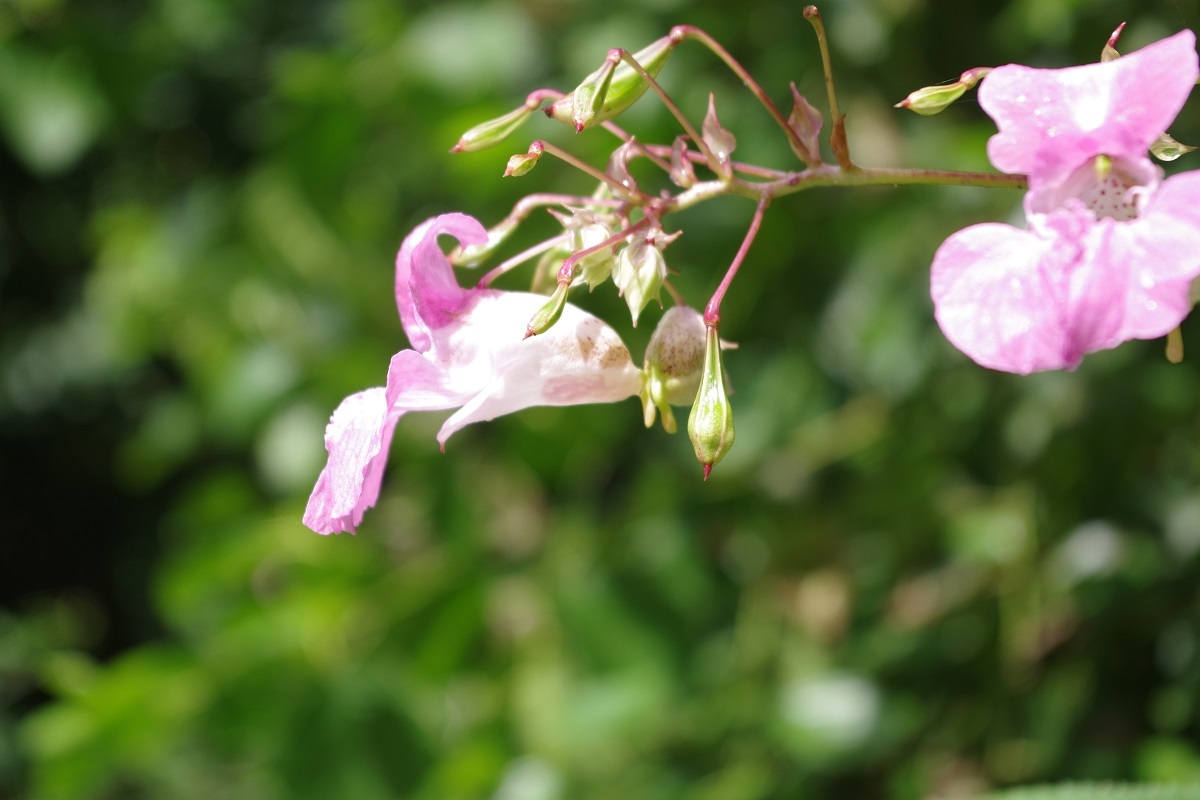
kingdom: Plantae
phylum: Tracheophyta
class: Magnoliopsida
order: Ericales
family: Balsaminaceae
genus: Impatiens
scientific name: Impatiens glandulifera
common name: Himalayan balsam
